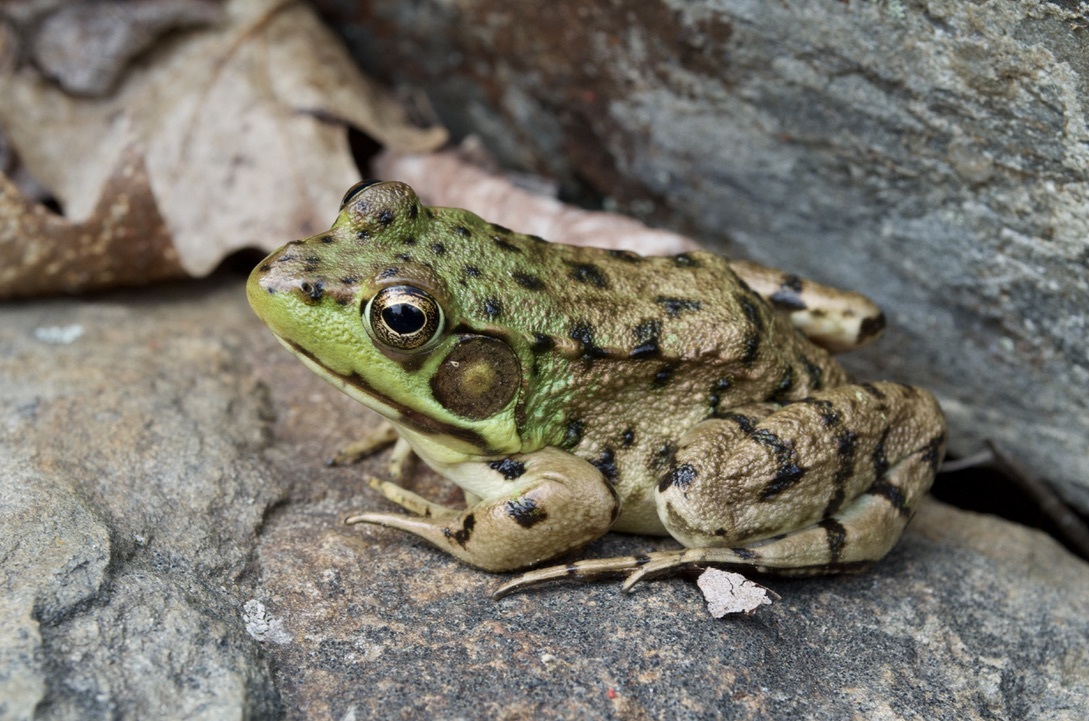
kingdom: Animalia
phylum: Chordata
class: Amphibia
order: Anura
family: Ranidae
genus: Lithobates
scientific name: Lithobates clamitans
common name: Green frog
